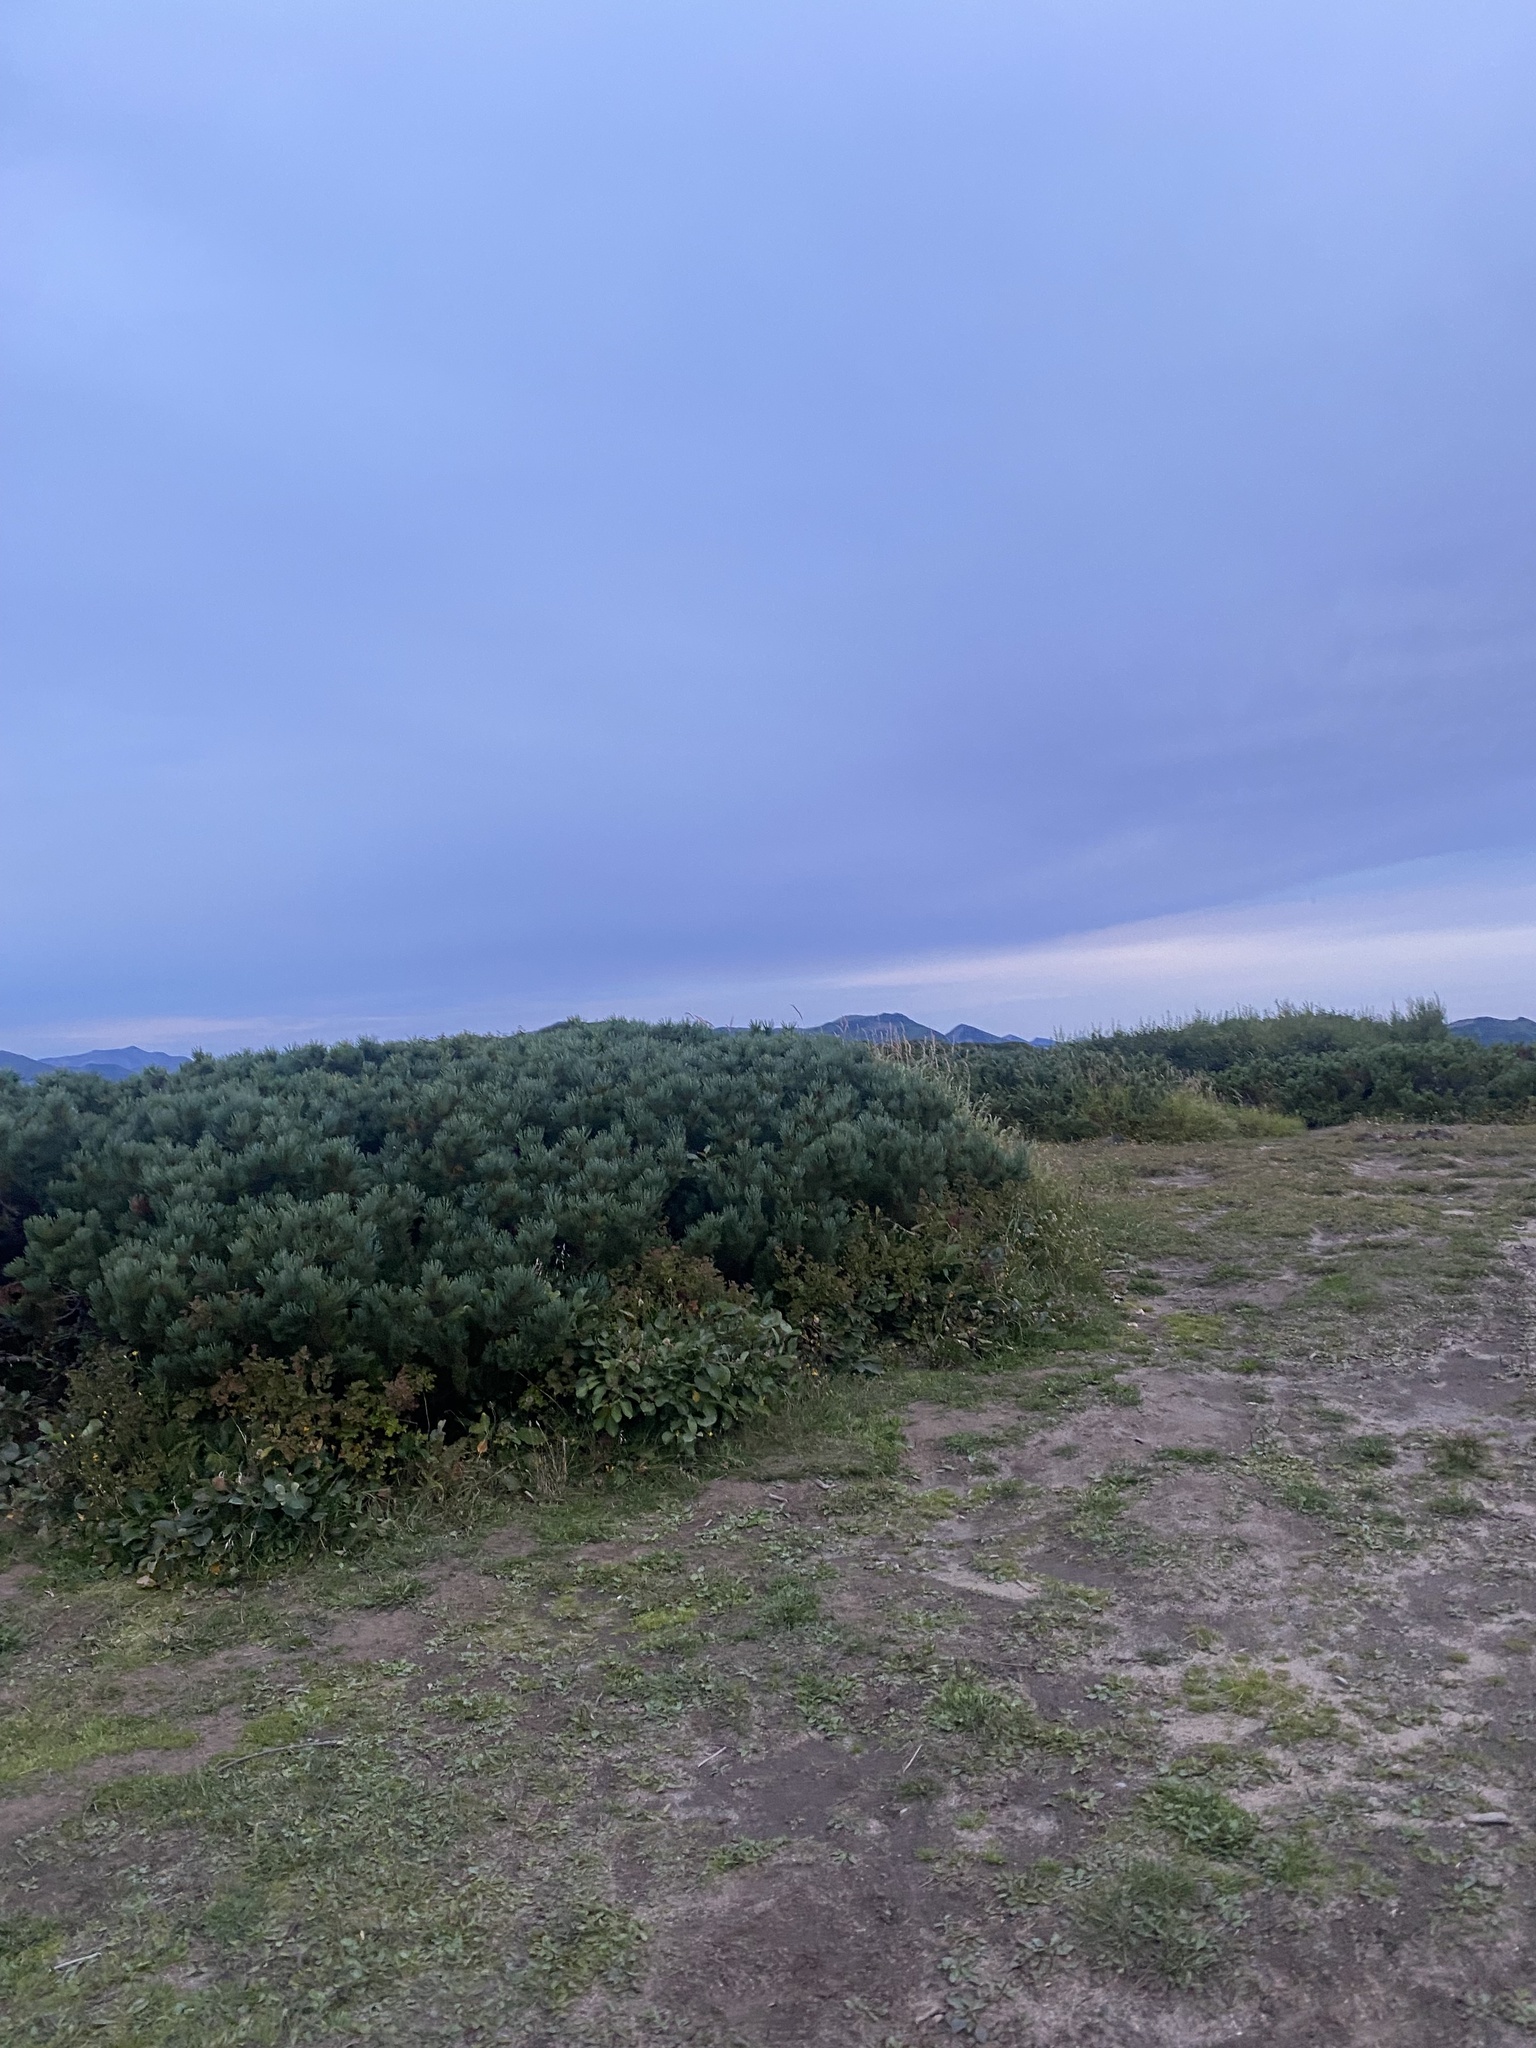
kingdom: Plantae
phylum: Tracheophyta
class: Pinopsida
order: Pinales
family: Pinaceae
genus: Pinus
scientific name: Pinus pumila
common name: Dwarf siberian pine
